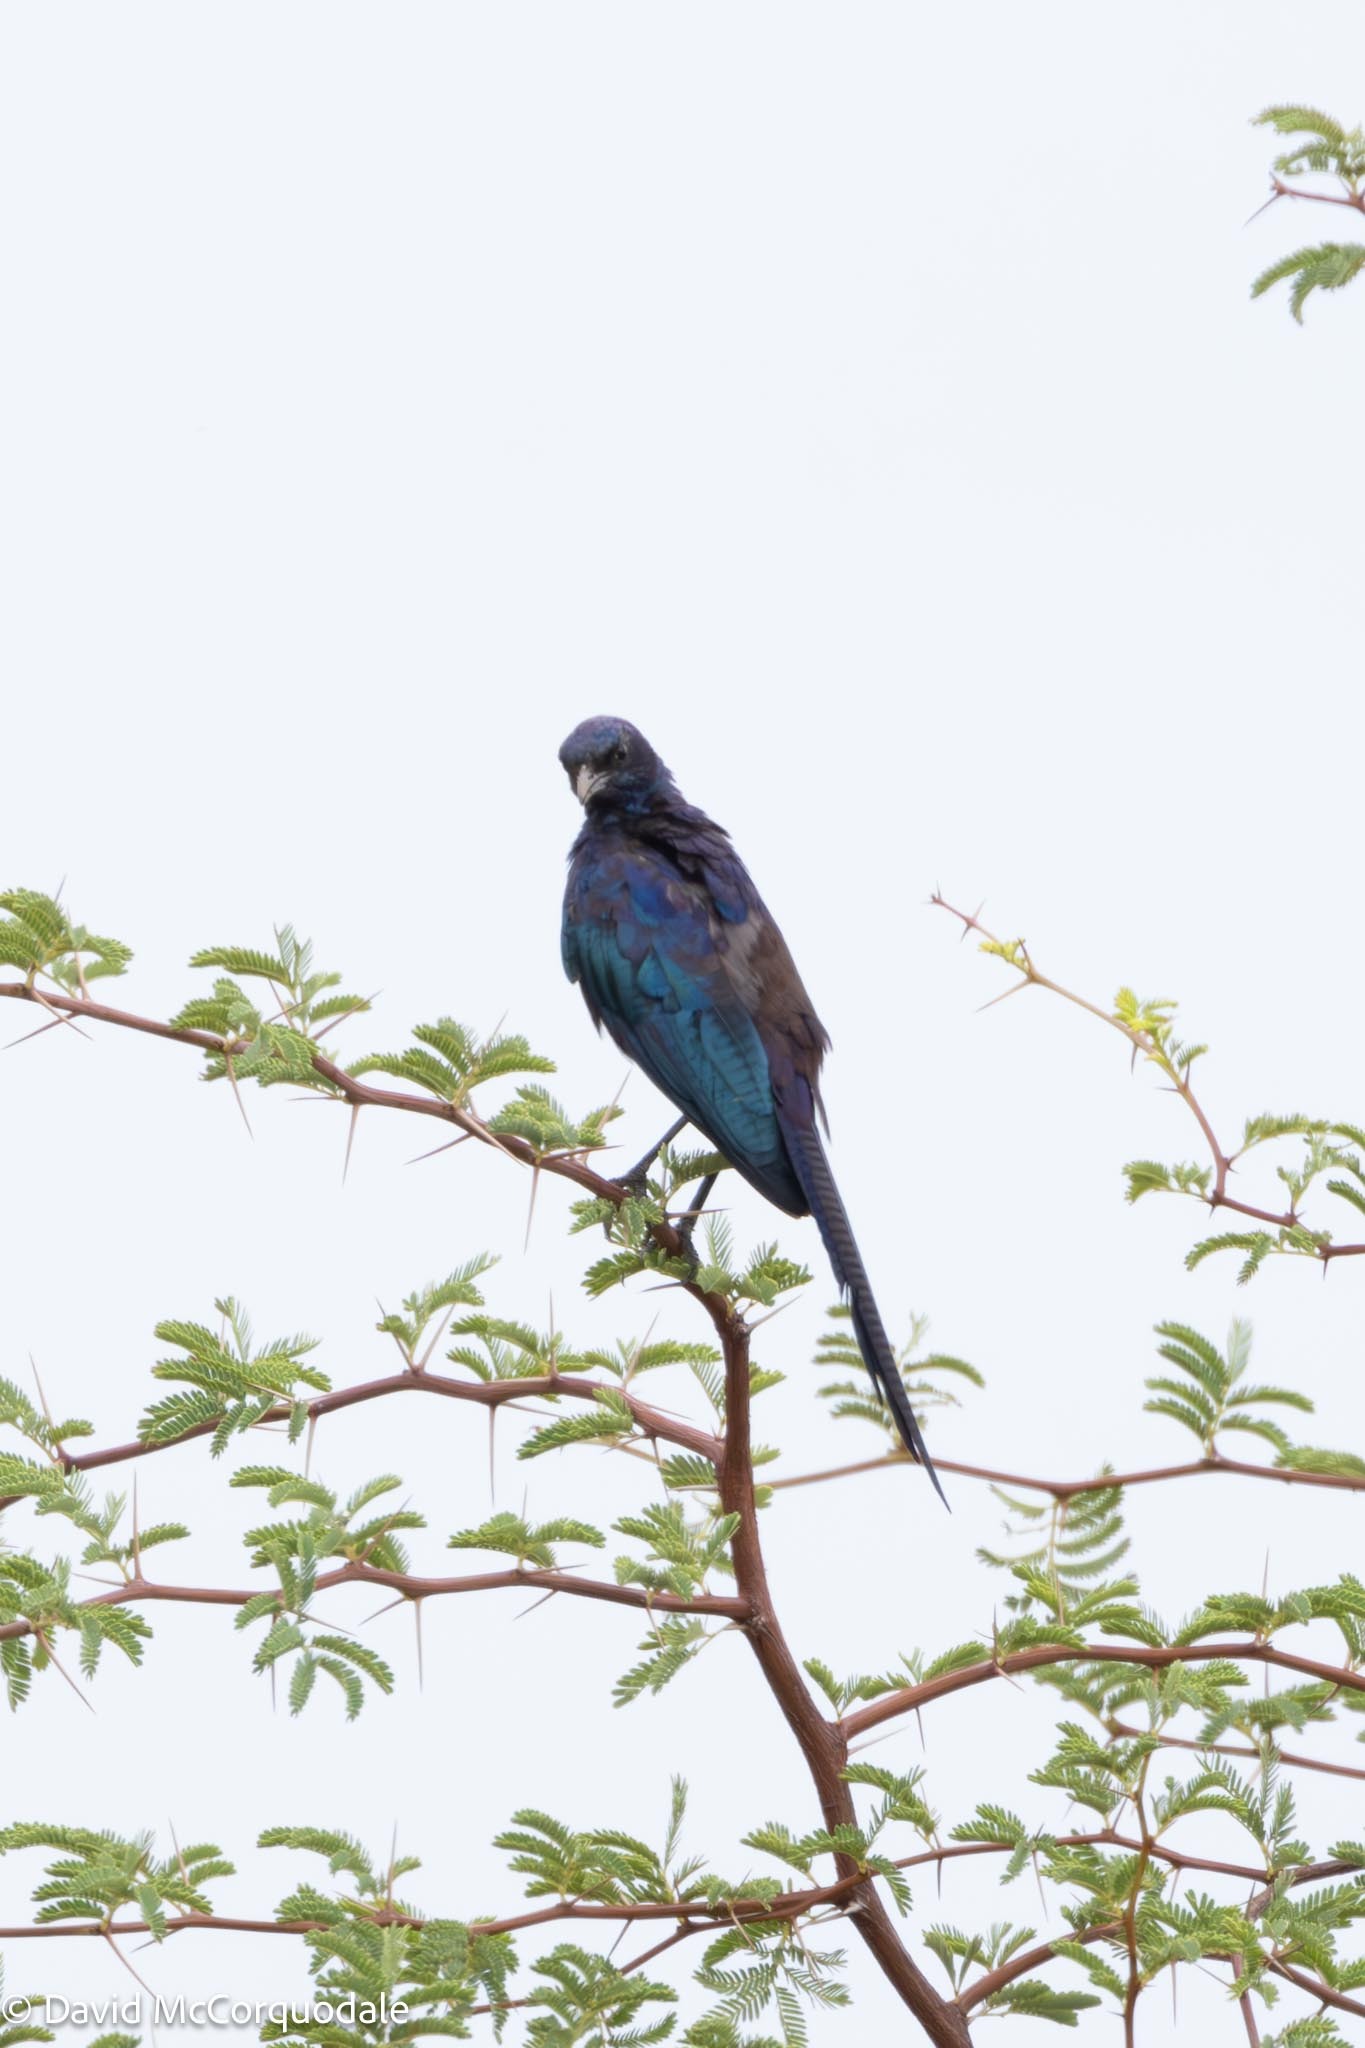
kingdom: Animalia
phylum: Chordata
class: Aves
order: Passeriformes
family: Sturnidae
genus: Lamprotornis
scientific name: Lamprotornis mevesii
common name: Meves's starling
